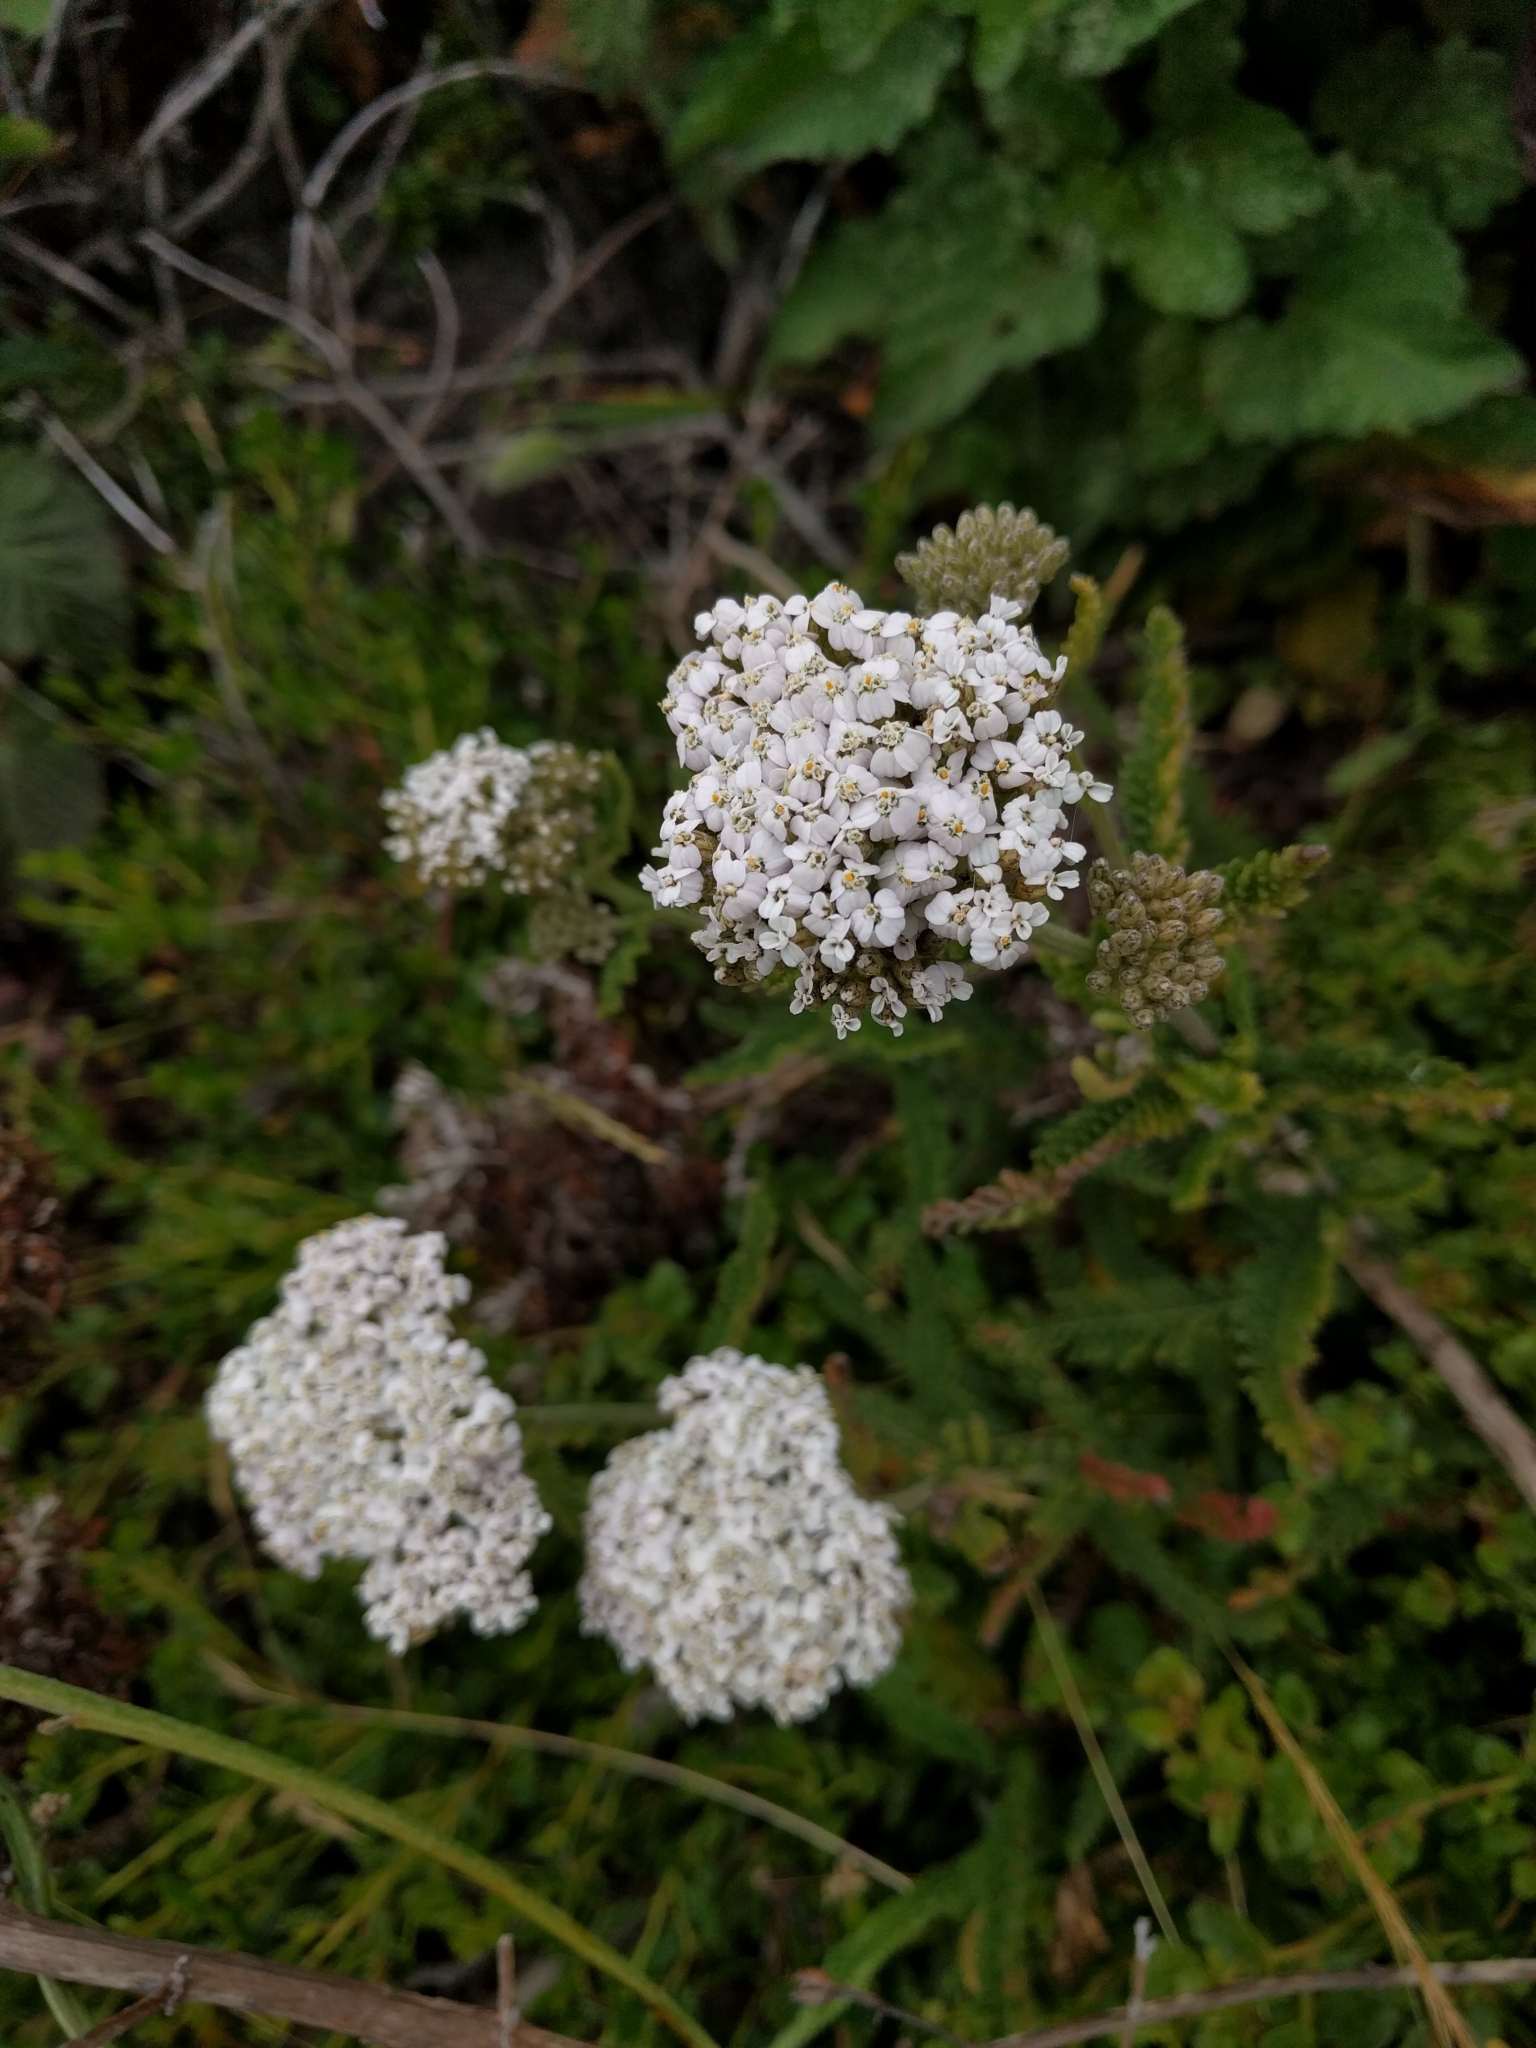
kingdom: Plantae
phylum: Tracheophyta
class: Magnoliopsida
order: Asterales
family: Asteraceae
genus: Achillea
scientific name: Achillea millefolium
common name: Yarrow
